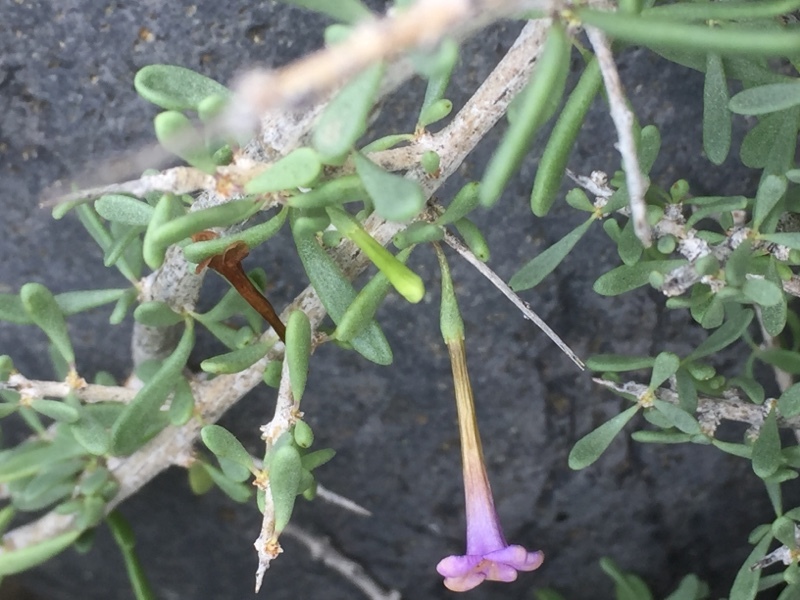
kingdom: Plantae
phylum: Tracheophyta
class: Magnoliopsida
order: Solanales
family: Solanaceae
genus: Lycium
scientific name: Lycium intricatum
